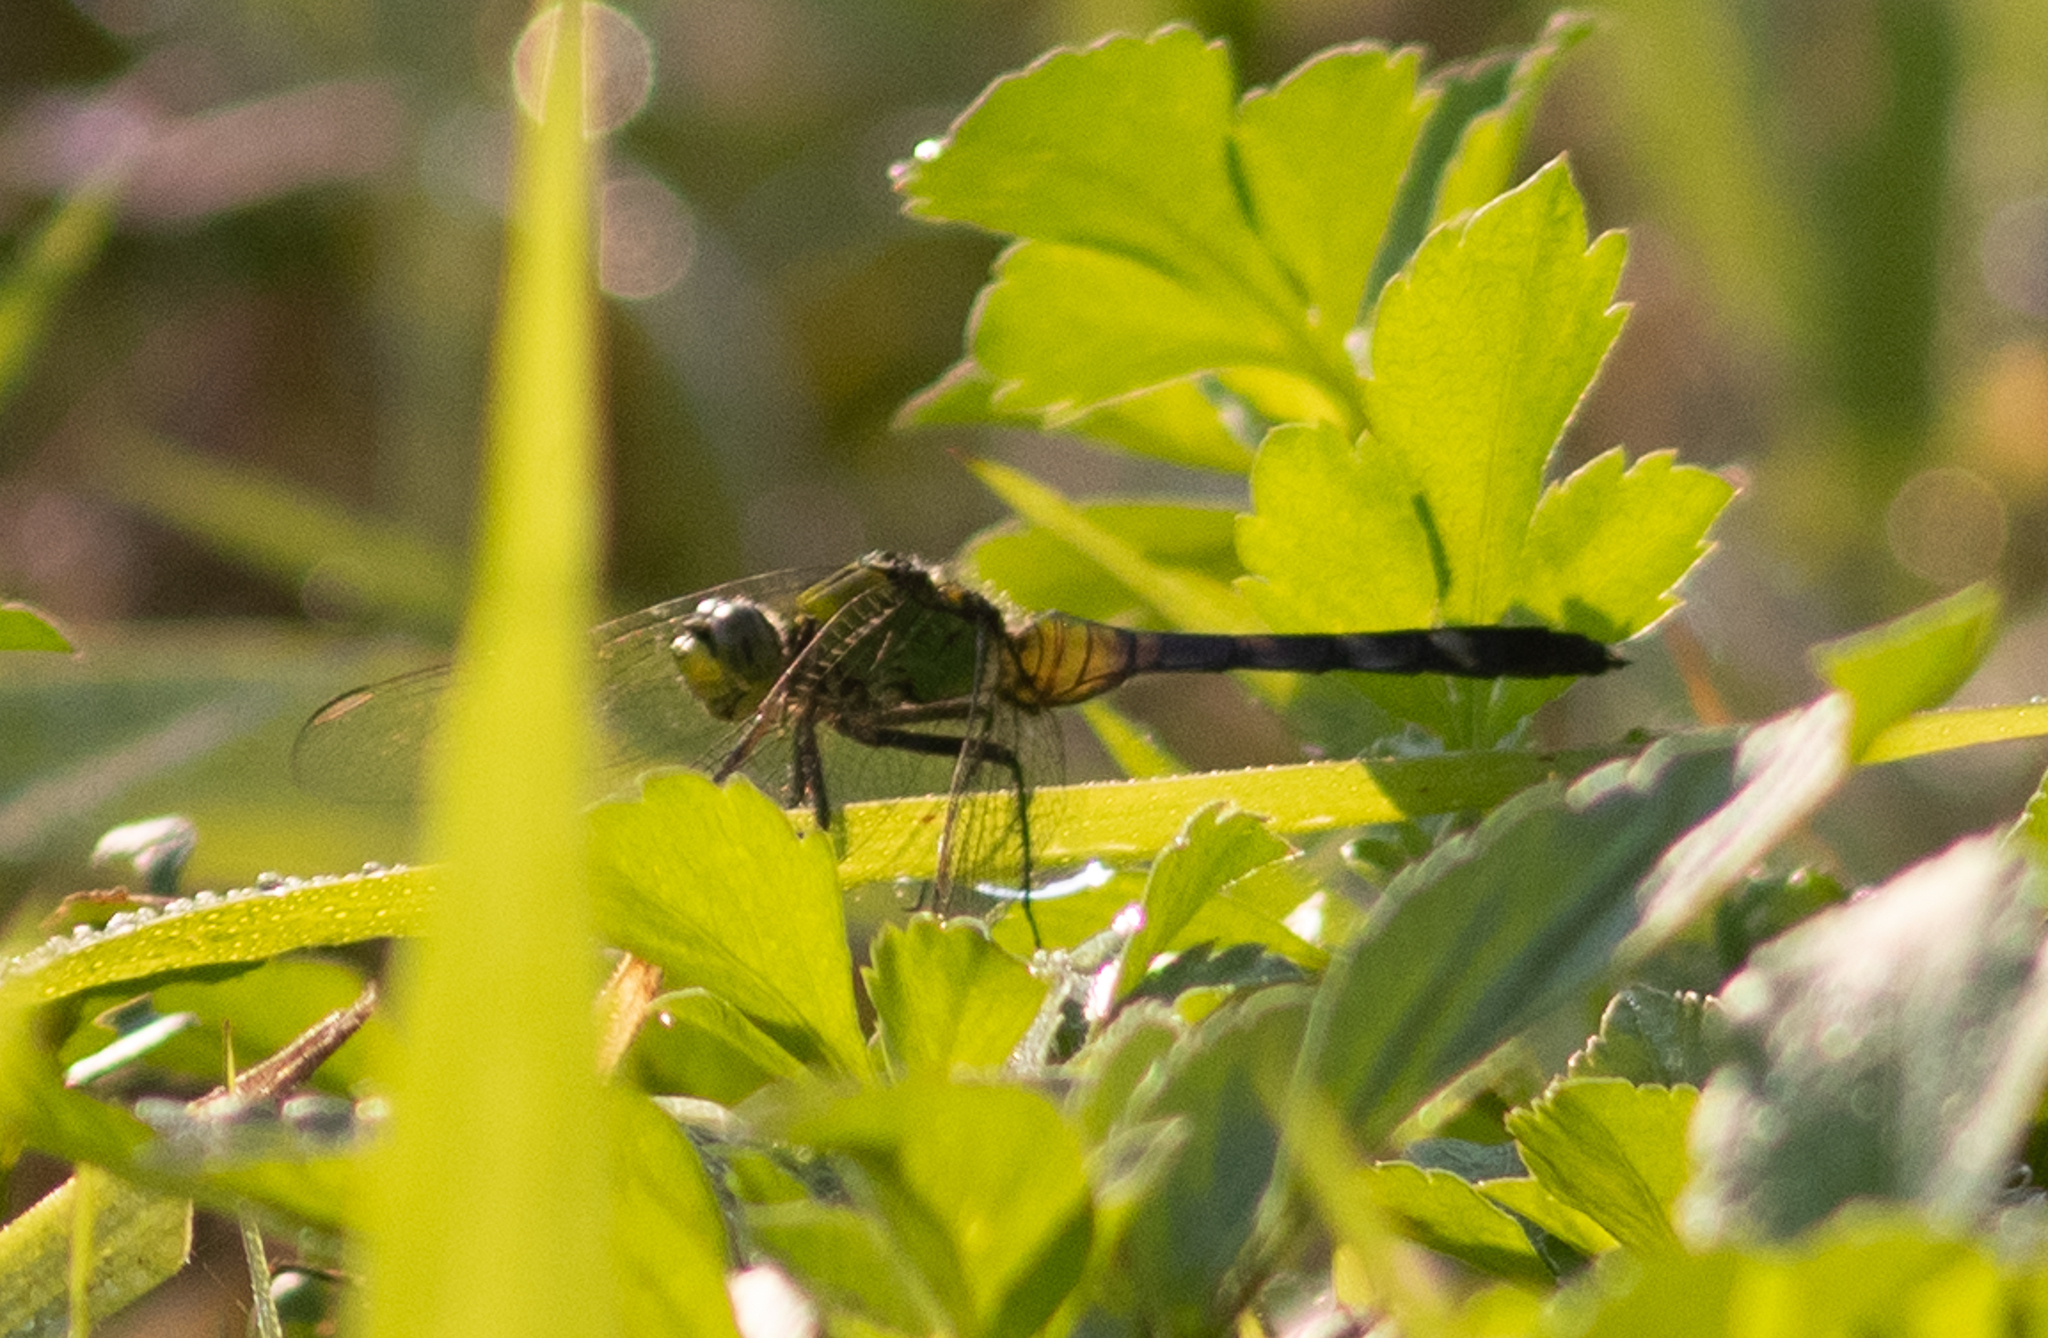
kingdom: Animalia
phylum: Arthropoda
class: Insecta
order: Odonata
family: Libellulidae
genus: Erythemis
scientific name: Erythemis simplicicollis
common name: Eastern pondhawk
